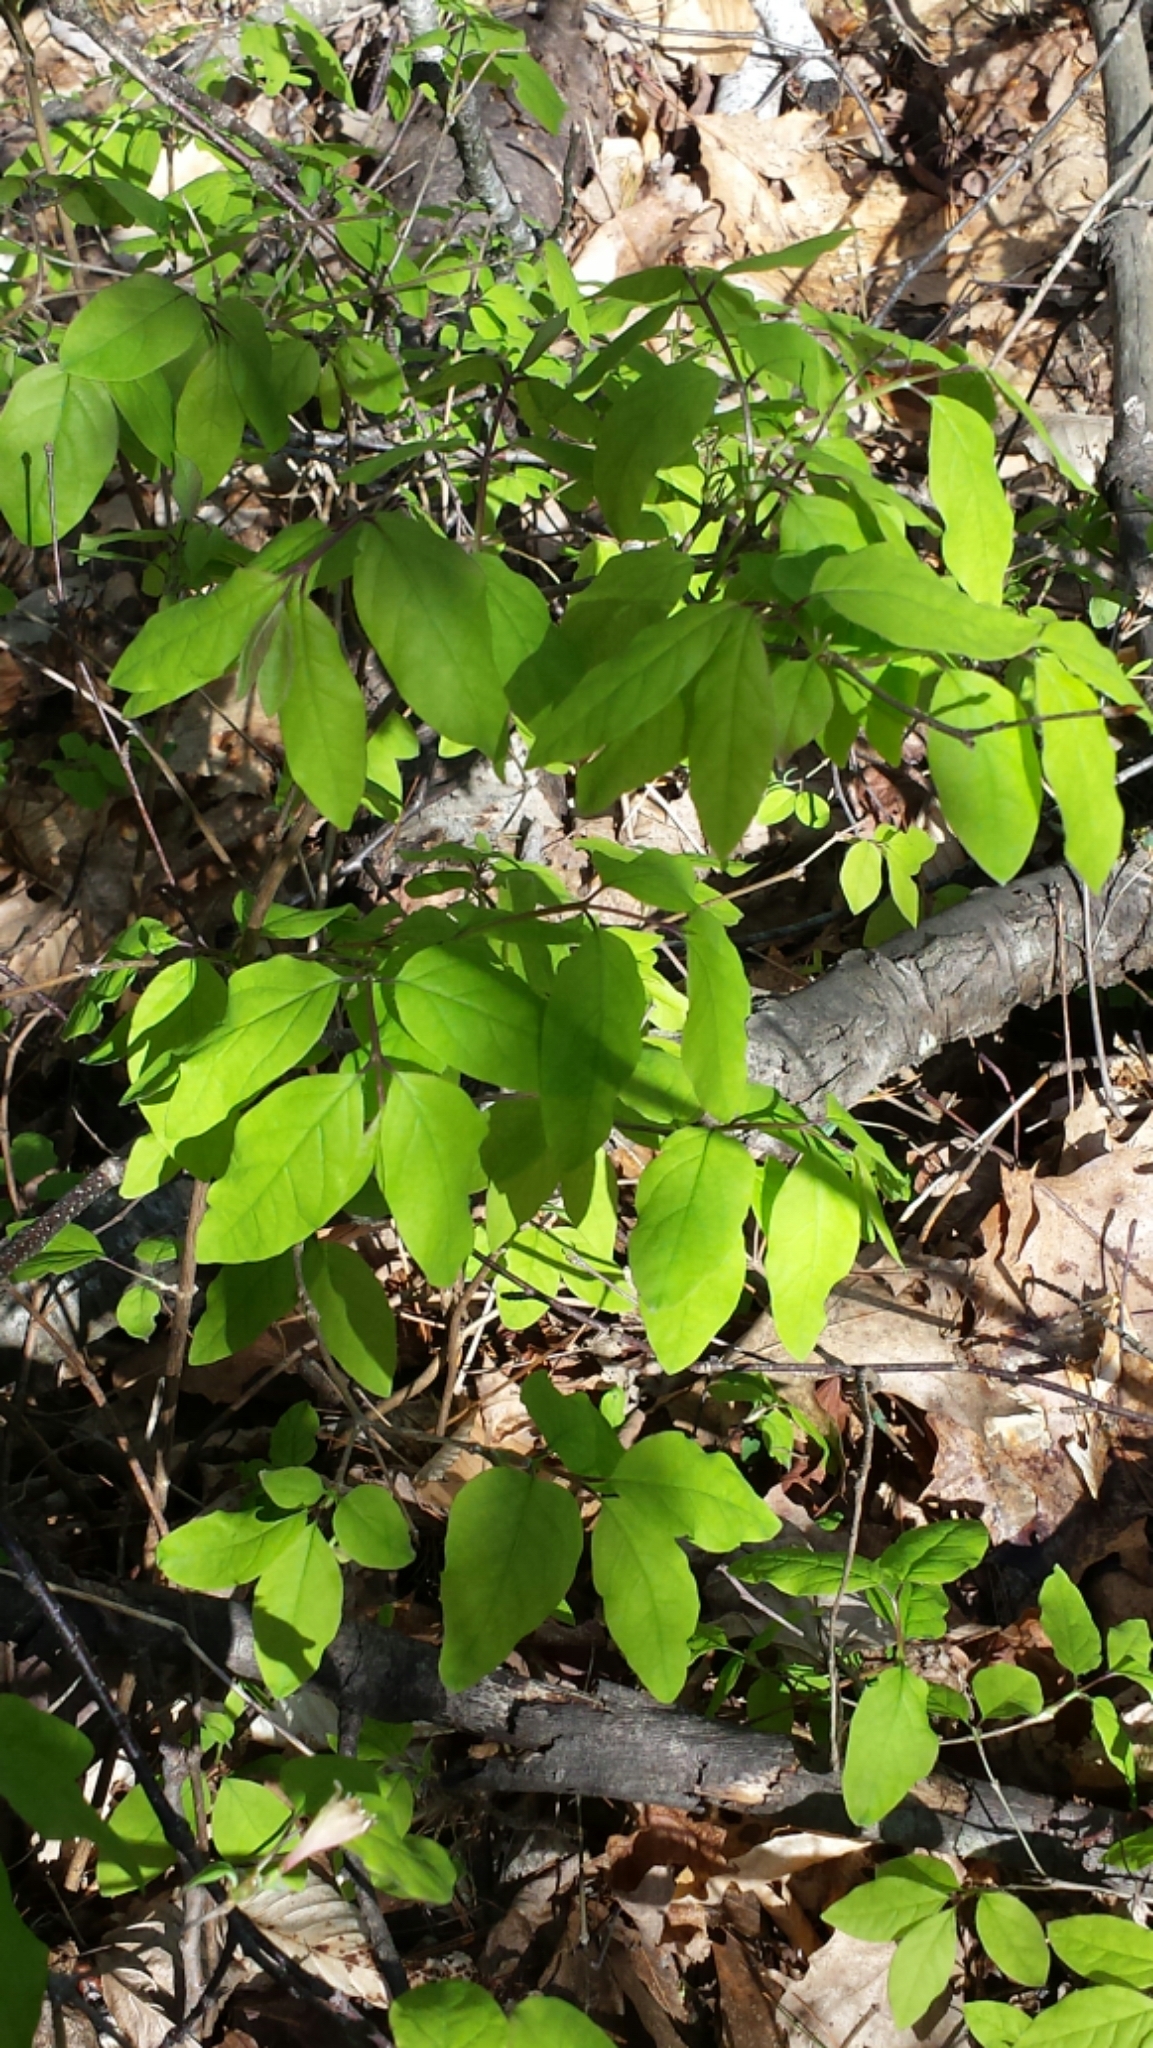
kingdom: Plantae
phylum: Tracheophyta
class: Magnoliopsida
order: Dipsacales
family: Caprifoliaceae
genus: Lonicera
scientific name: Lonicera canadensis
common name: American fly-honeysuckle
